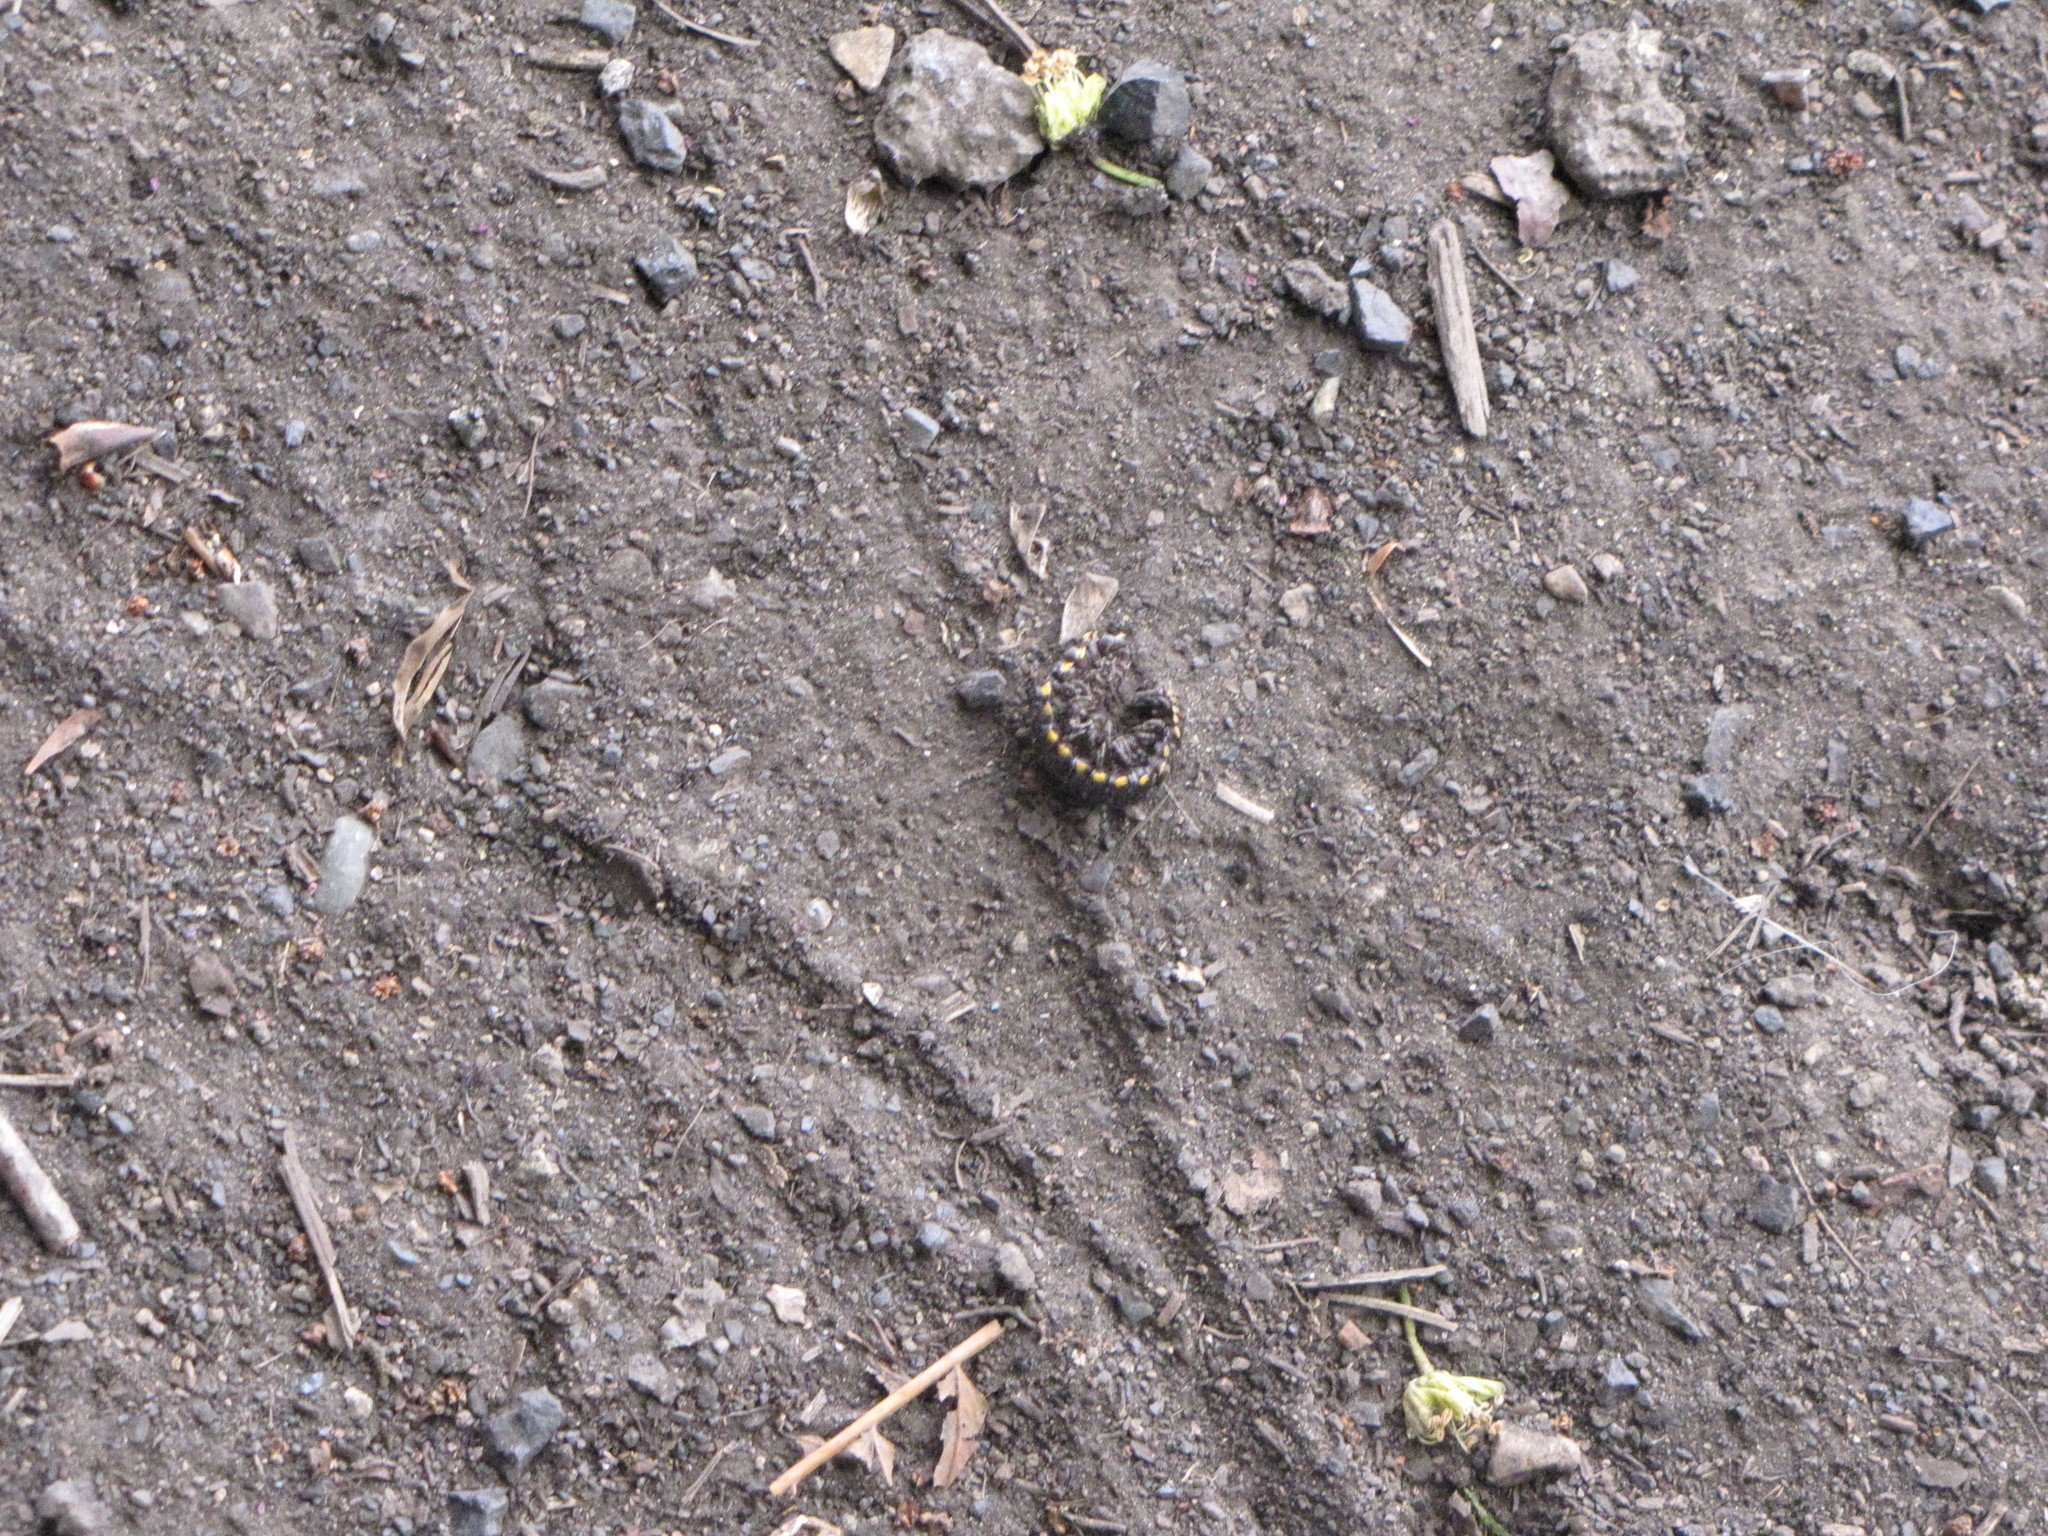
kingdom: Animalia
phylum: Arthropoda
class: Diplopoda
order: Polydesmida
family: Xystodesmidae
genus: Harpaphe
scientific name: Harpaphe haydeniana
